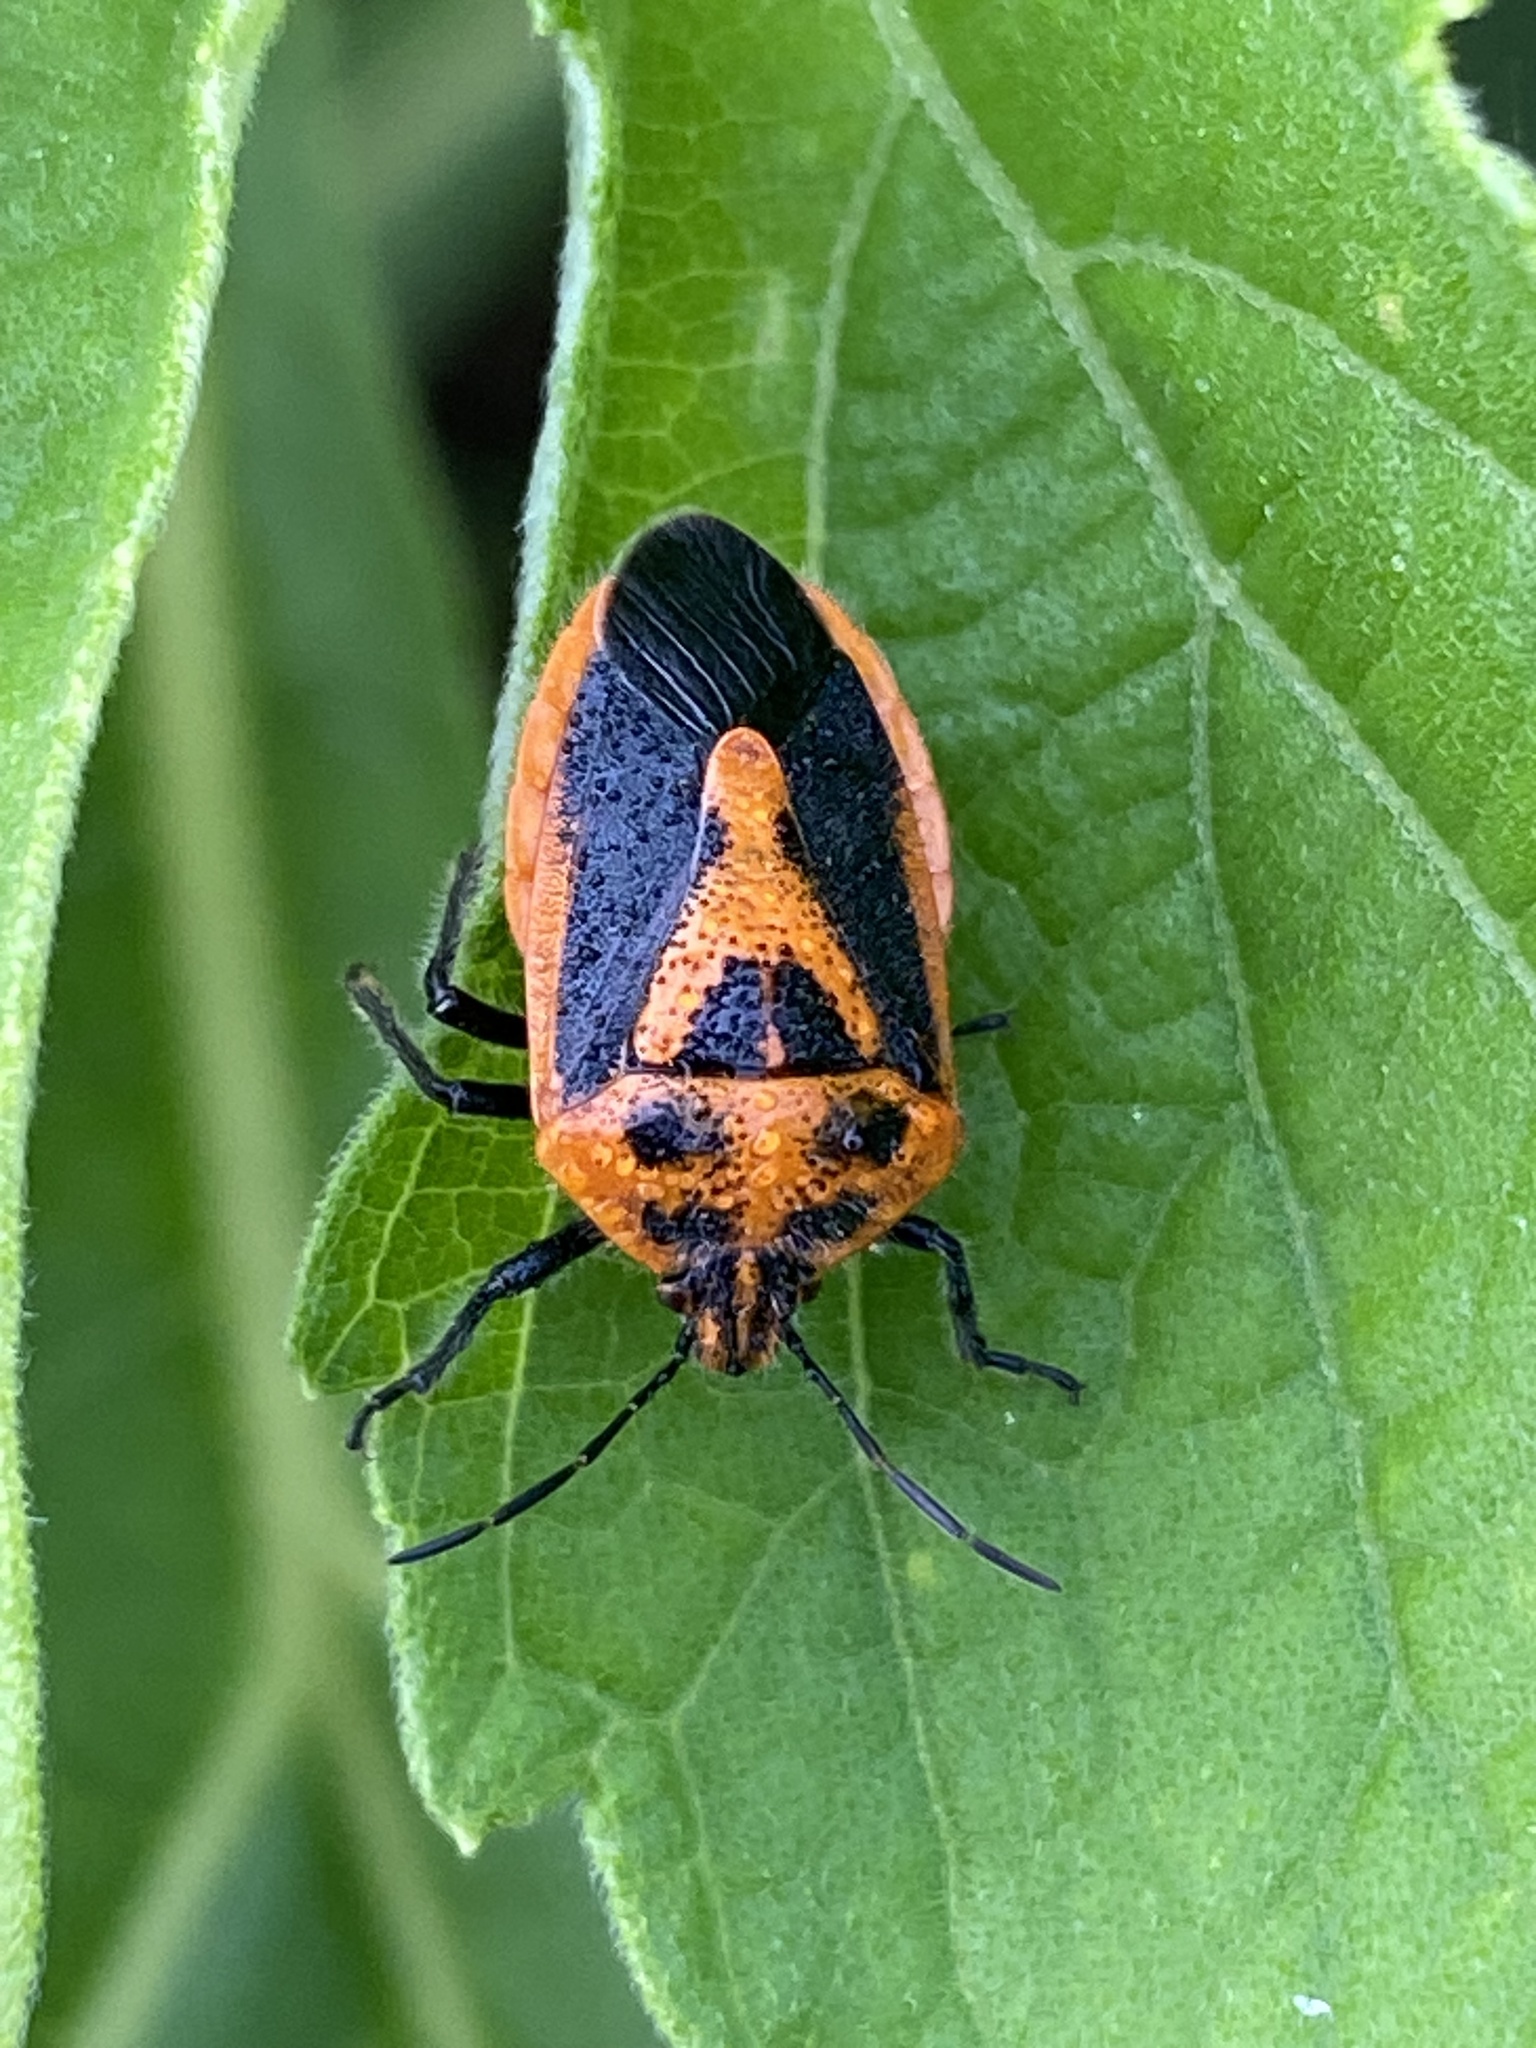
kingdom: Animalia
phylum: Arthropoda
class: Insecta
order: Hemiptera
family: Pentatomidae
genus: Agonoscelis
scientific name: Agonoscelis rutila
